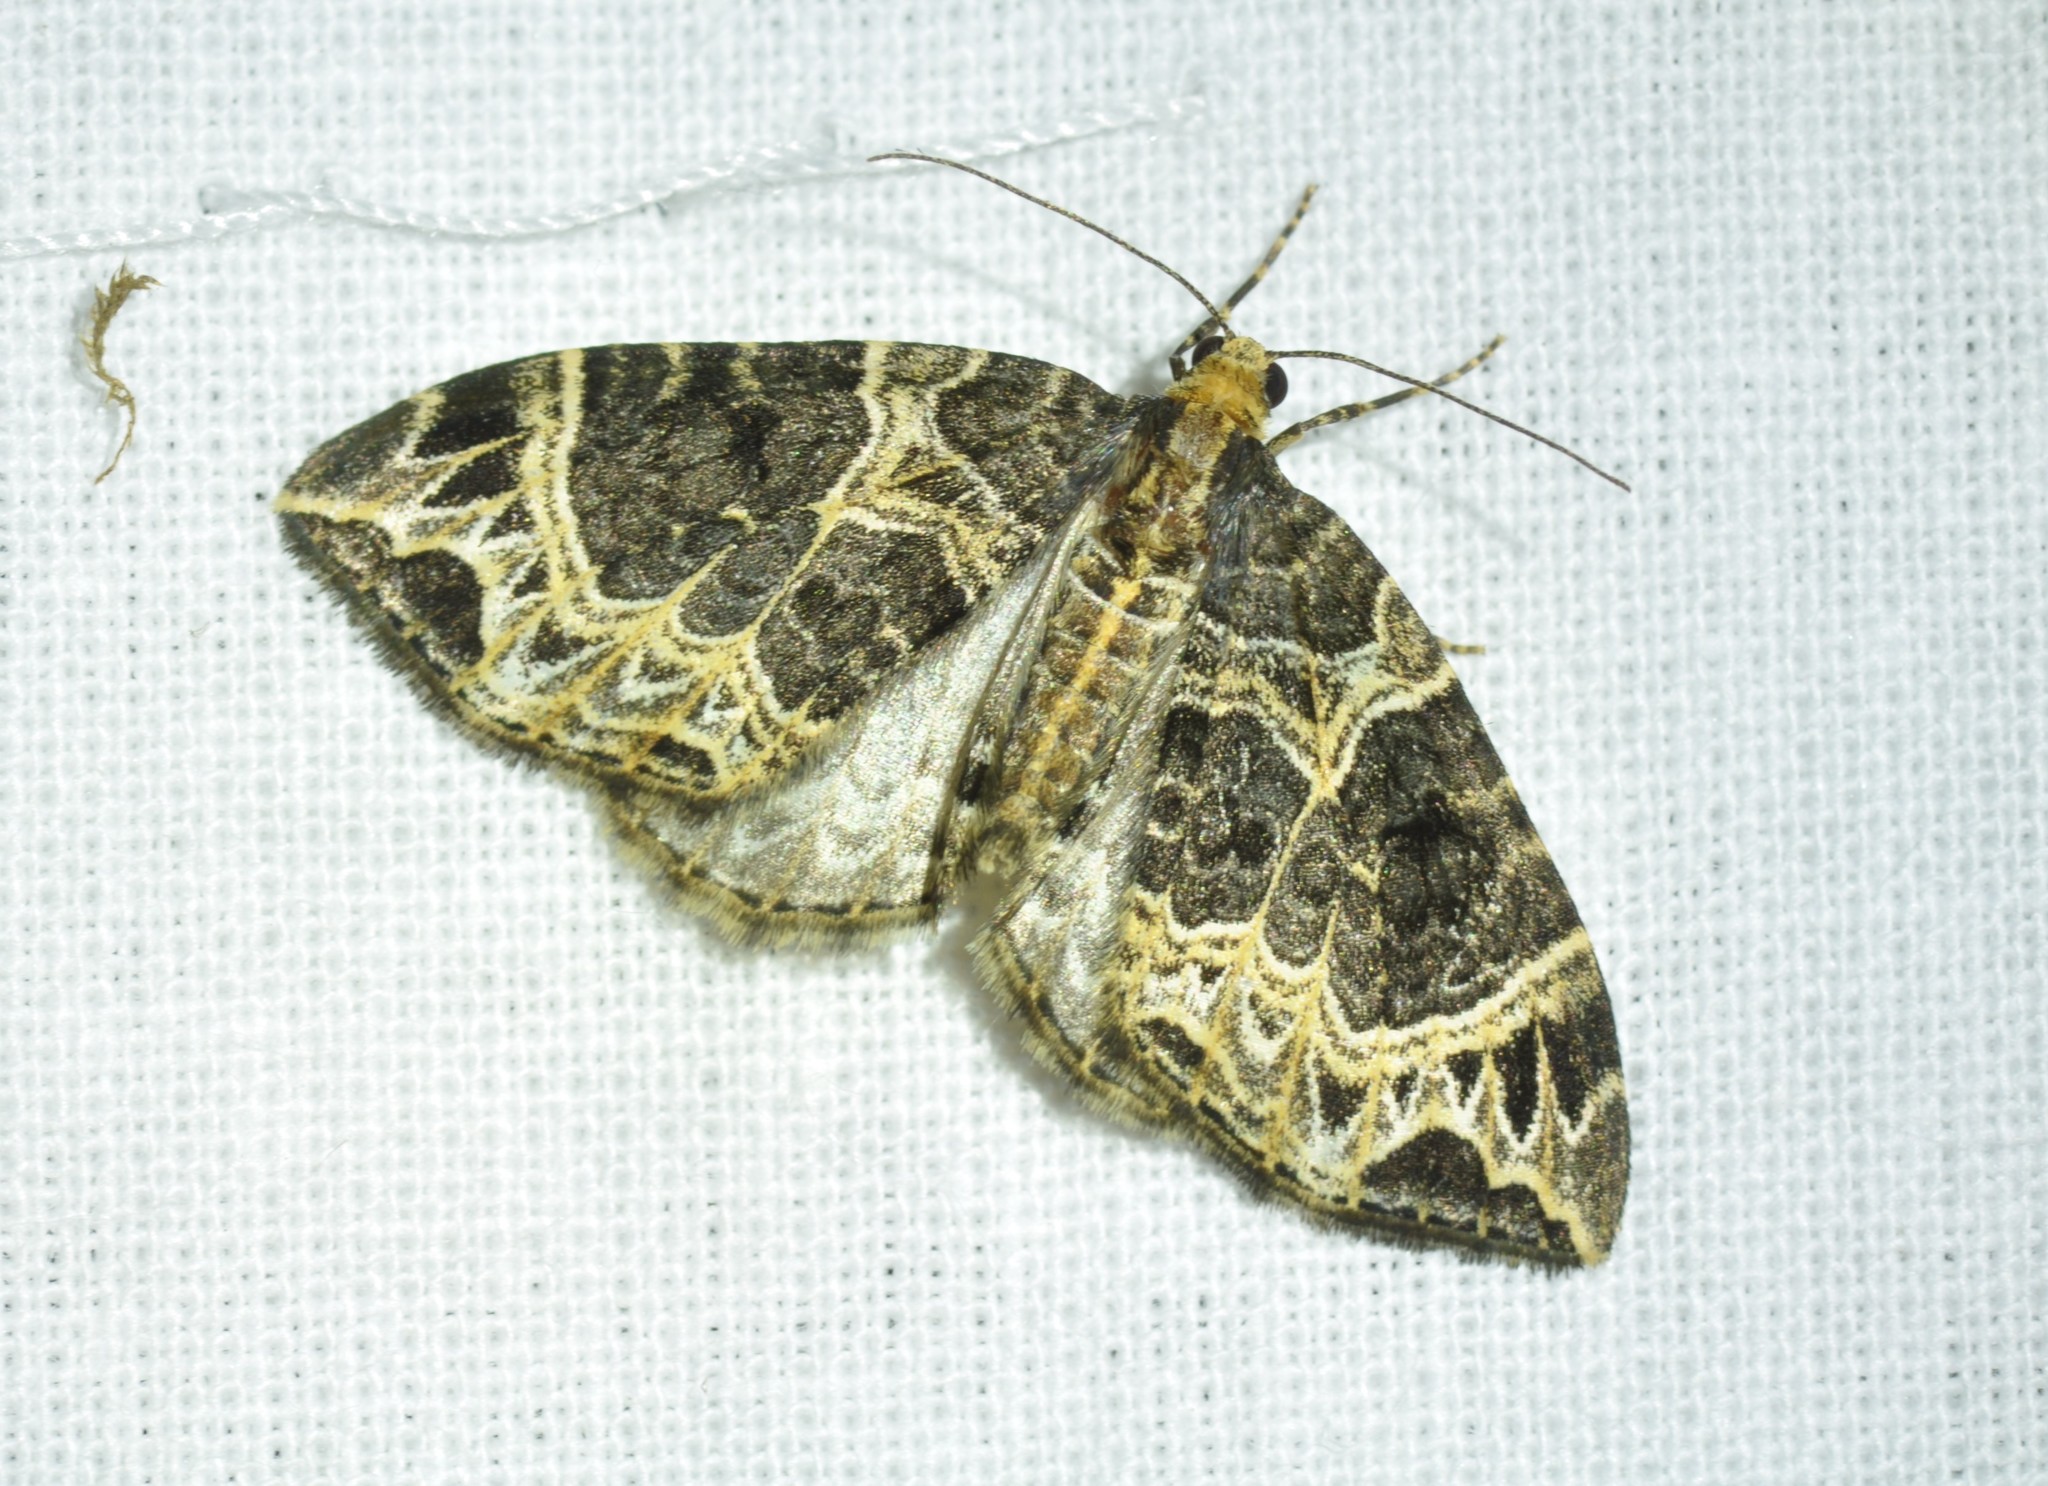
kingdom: Animalia
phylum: Arthropoda
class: Insecta
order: Lepidoptera
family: Geometridae
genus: Ecliptopera
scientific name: Ecliptopera silaceata
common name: Small phoenix
